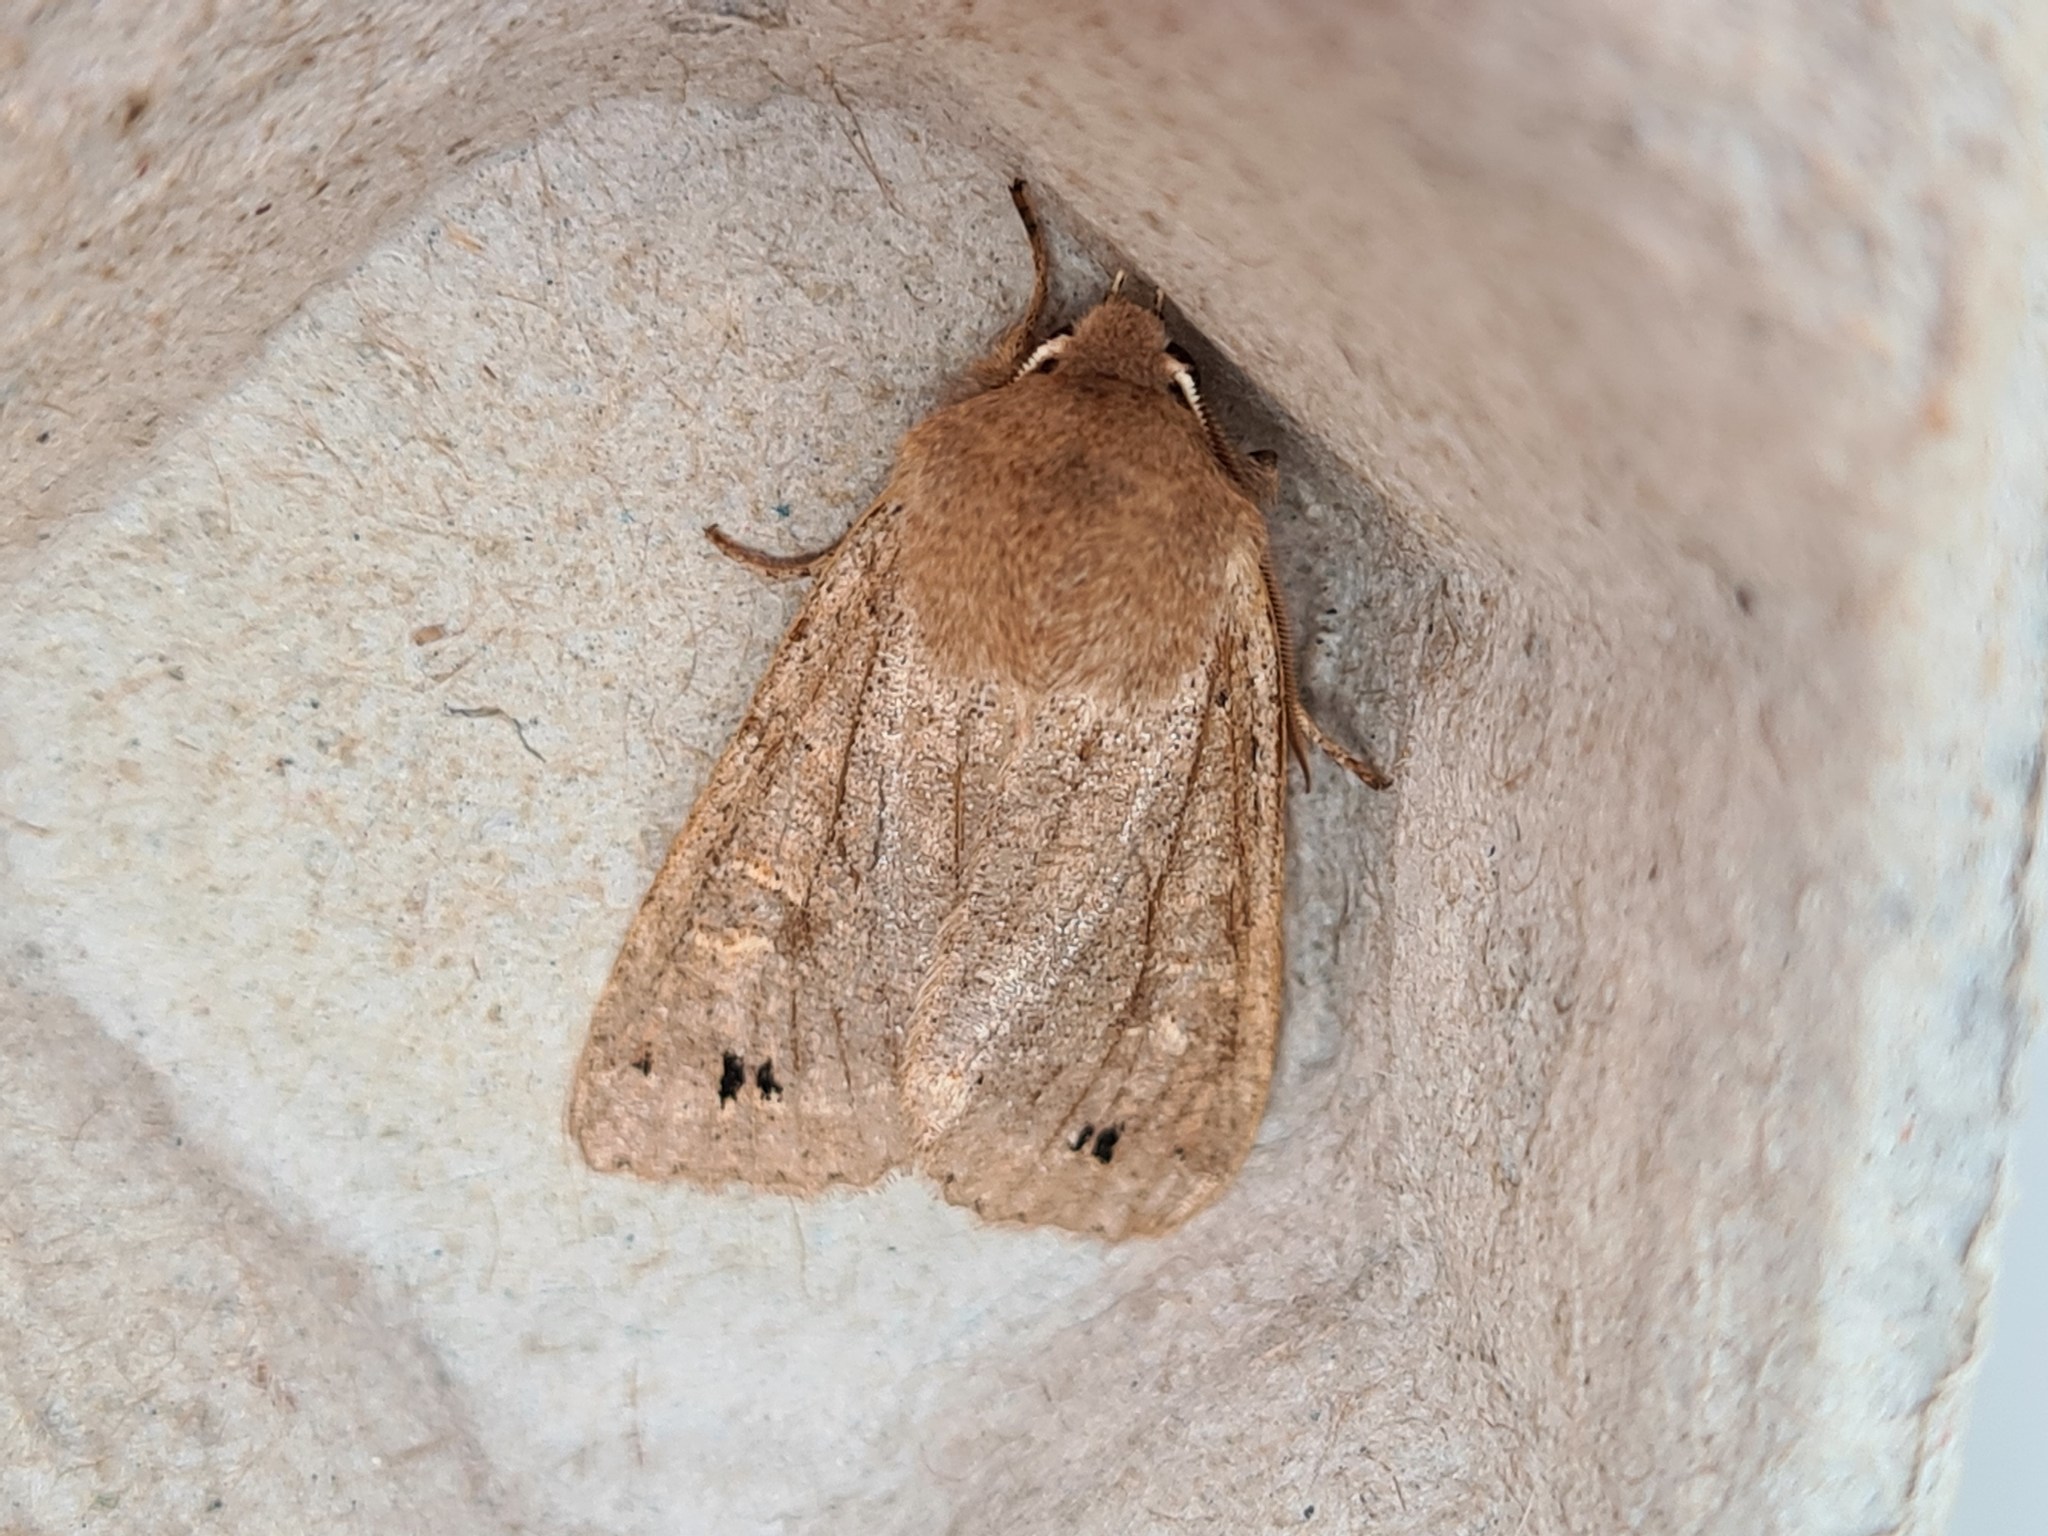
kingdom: Animalia
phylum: Arthropoda
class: Insecta
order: Lepidoptera
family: Noctuidae
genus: Anorthoa
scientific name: Anorthoa munda
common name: Twin-spotted quaker
